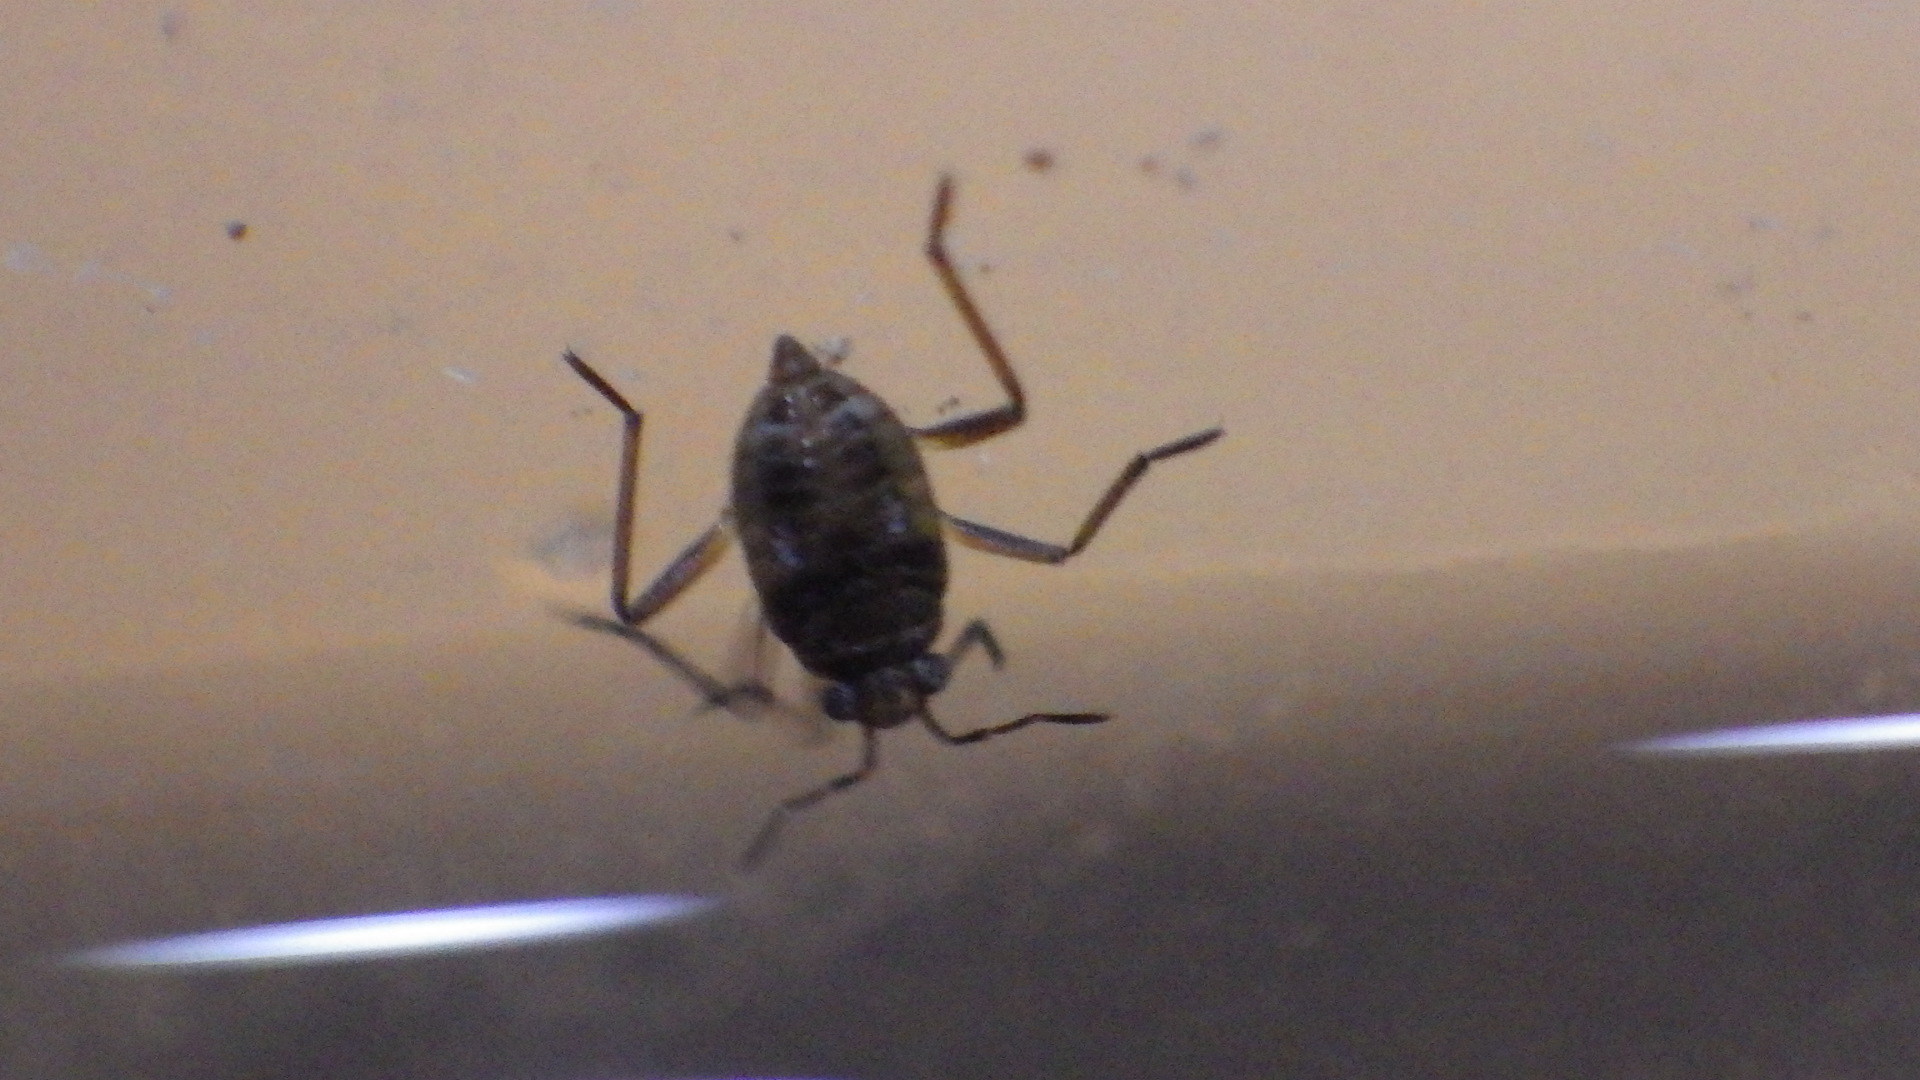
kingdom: Animalia
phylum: Arthropoda
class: Insecta
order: Hemiptera
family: Veliidae
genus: Microvelia
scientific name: Microvelia
